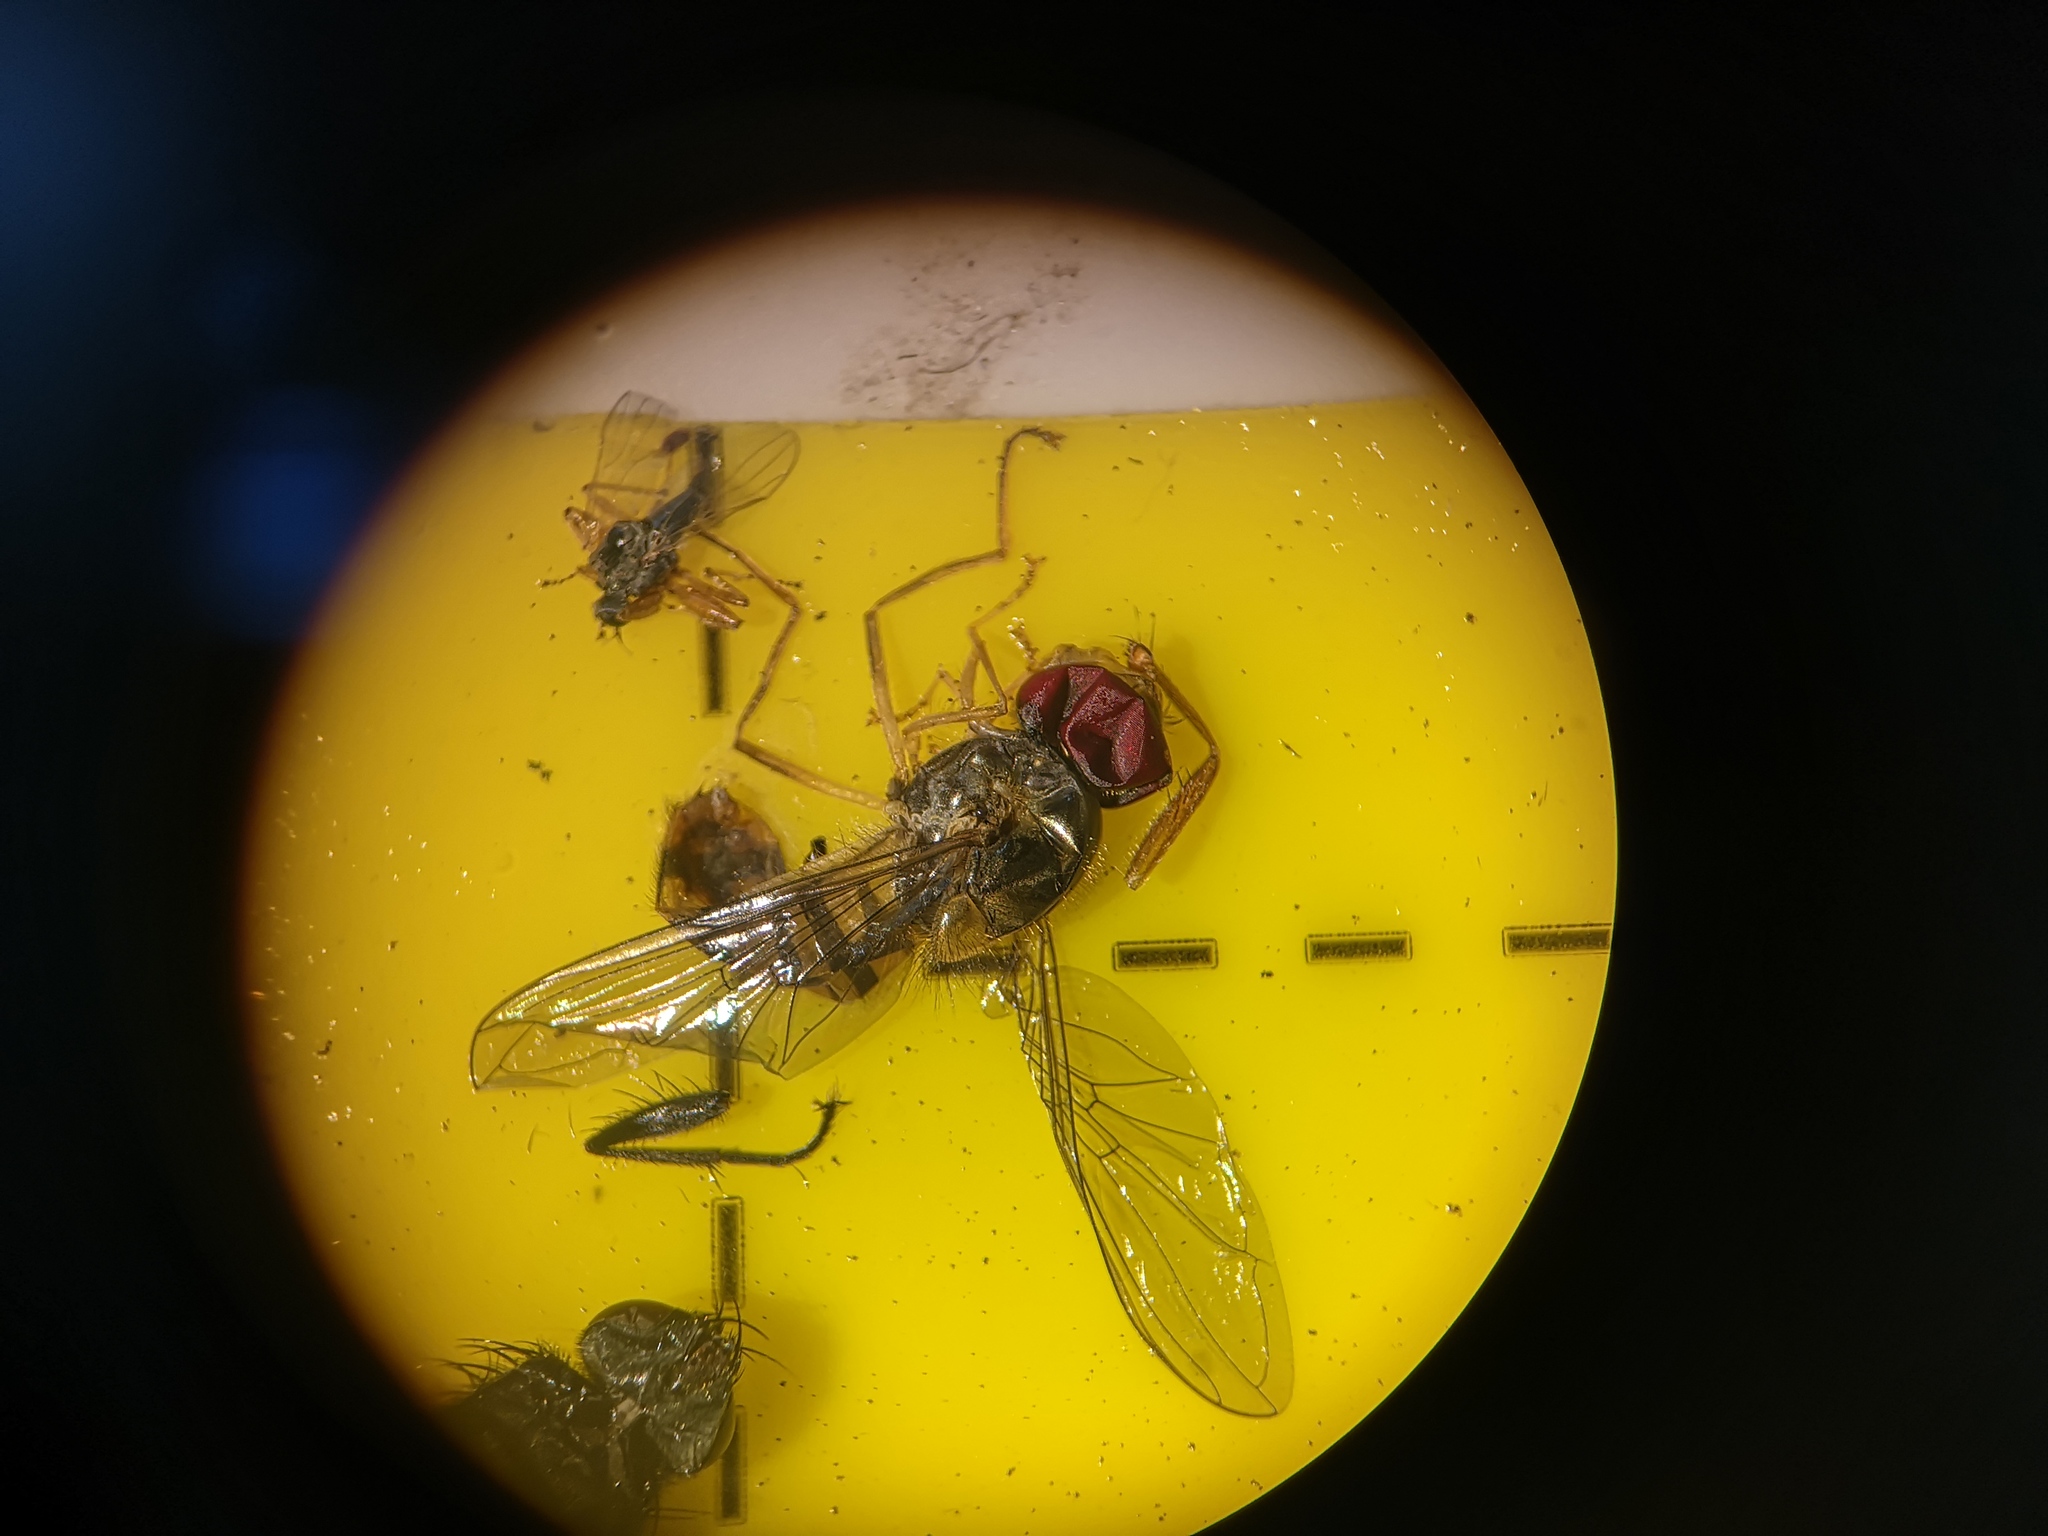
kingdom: Animalia
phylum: Arthropoda
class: Insecta
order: Diptera
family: Syrphidae
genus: Episyrphus
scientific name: Episyrphus balteatus
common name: Marmalade hoverfly
